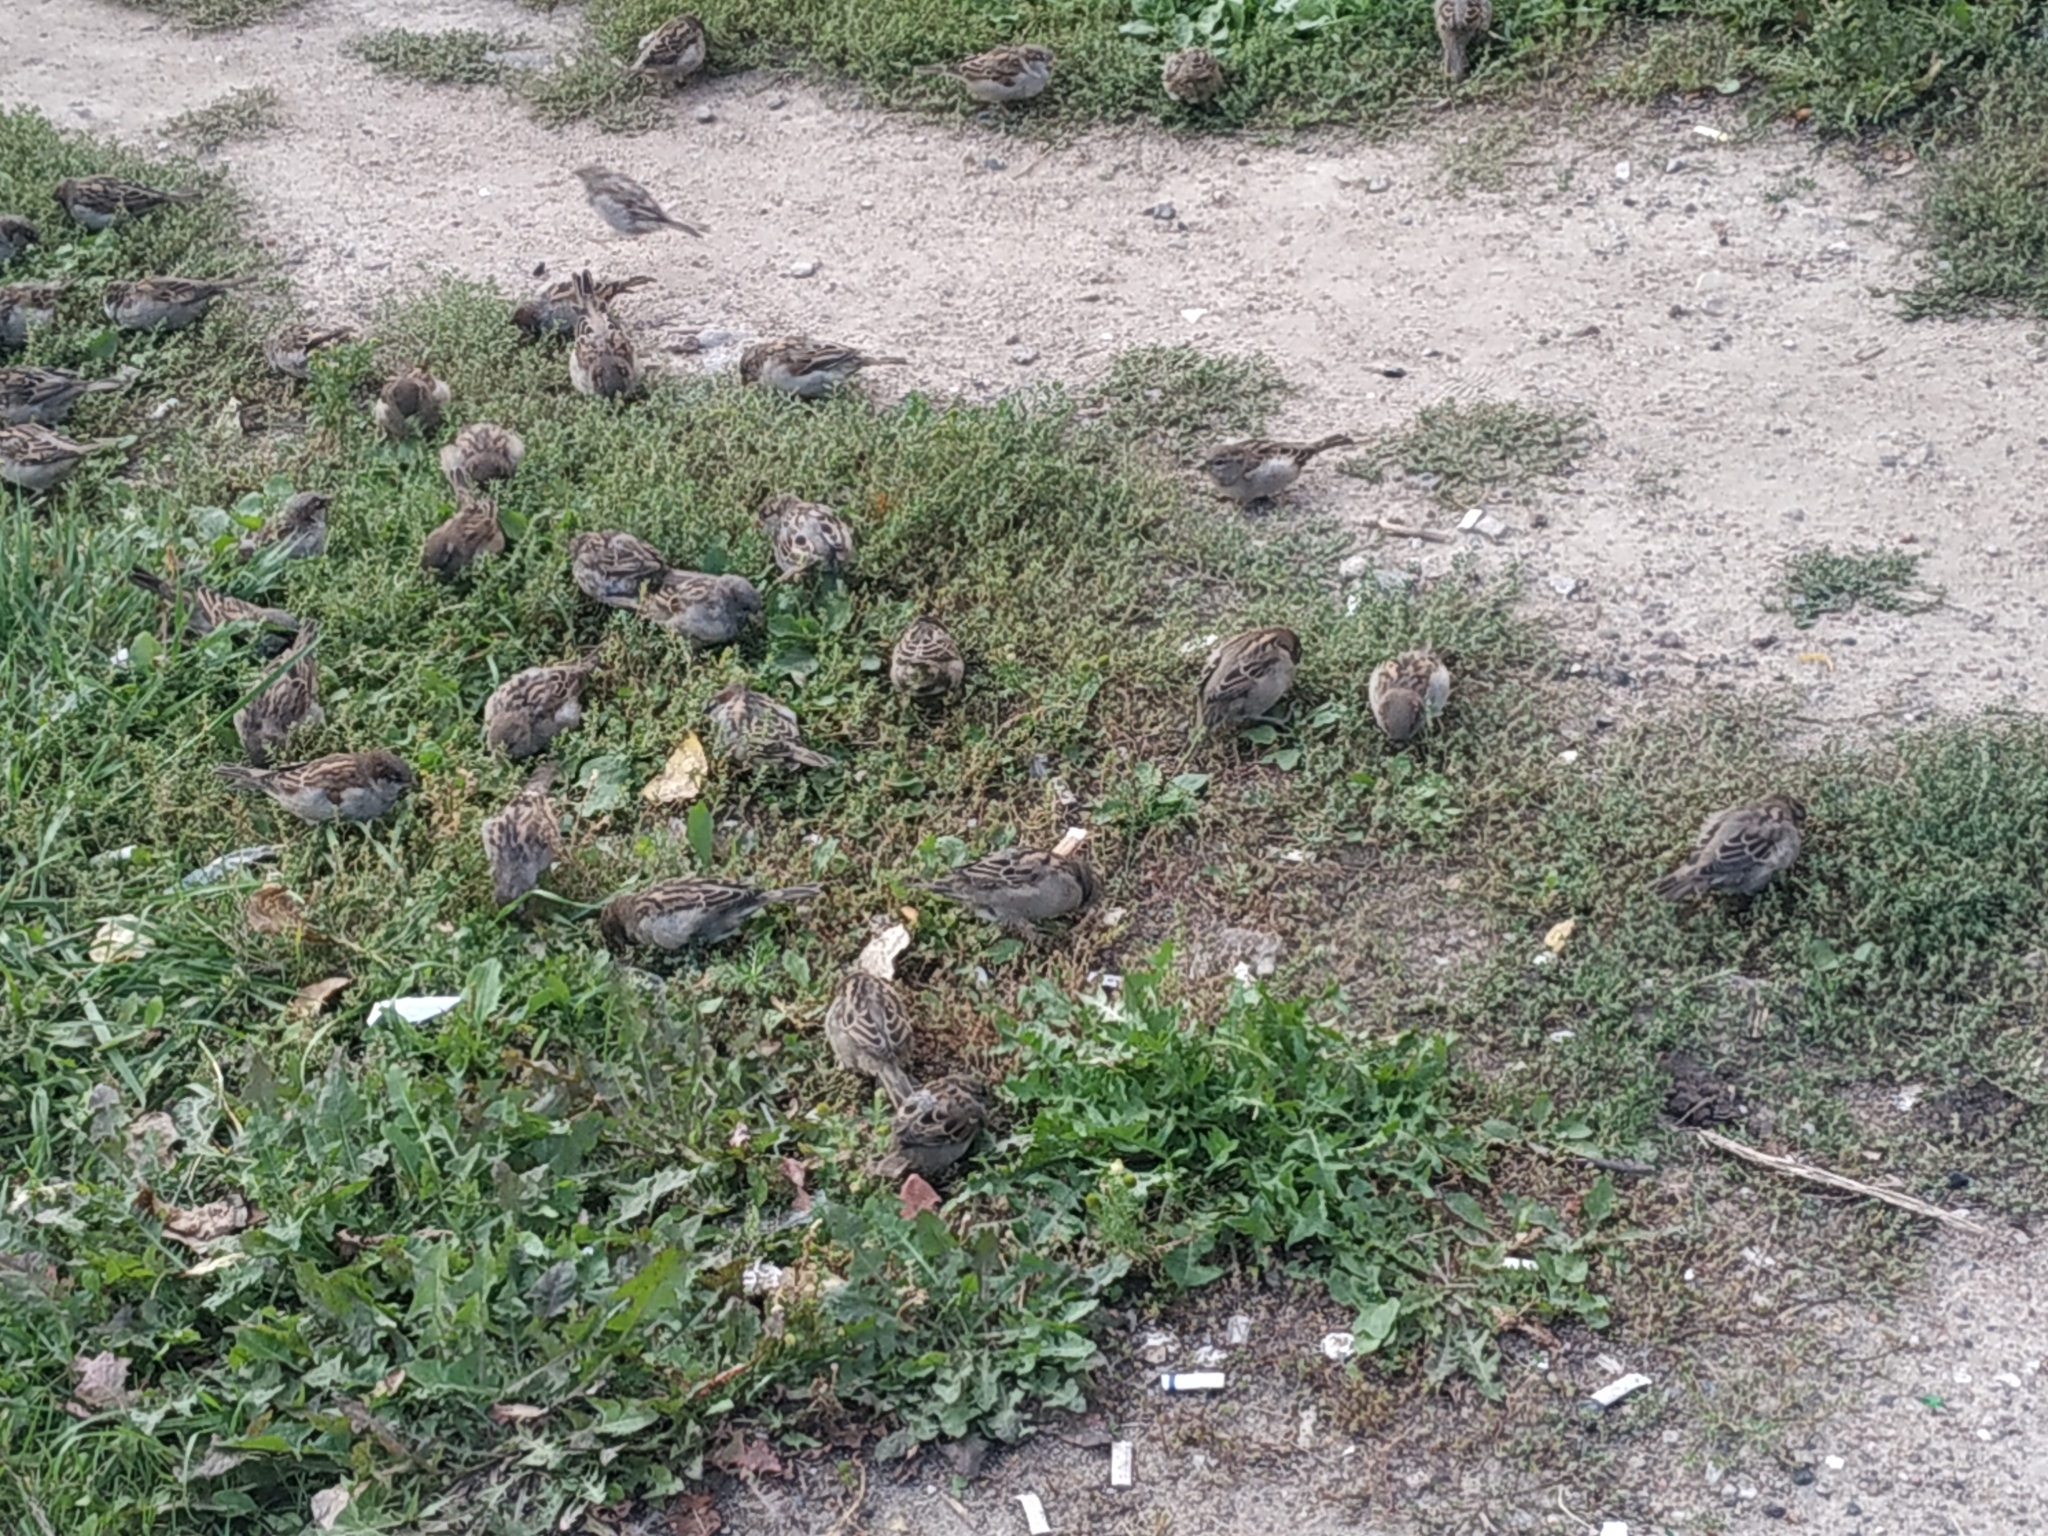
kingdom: Animalia
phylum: Chordata
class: Aves
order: Passeriformes
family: Passeridae
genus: Passer
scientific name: Passer domesticus
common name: House sparrow
